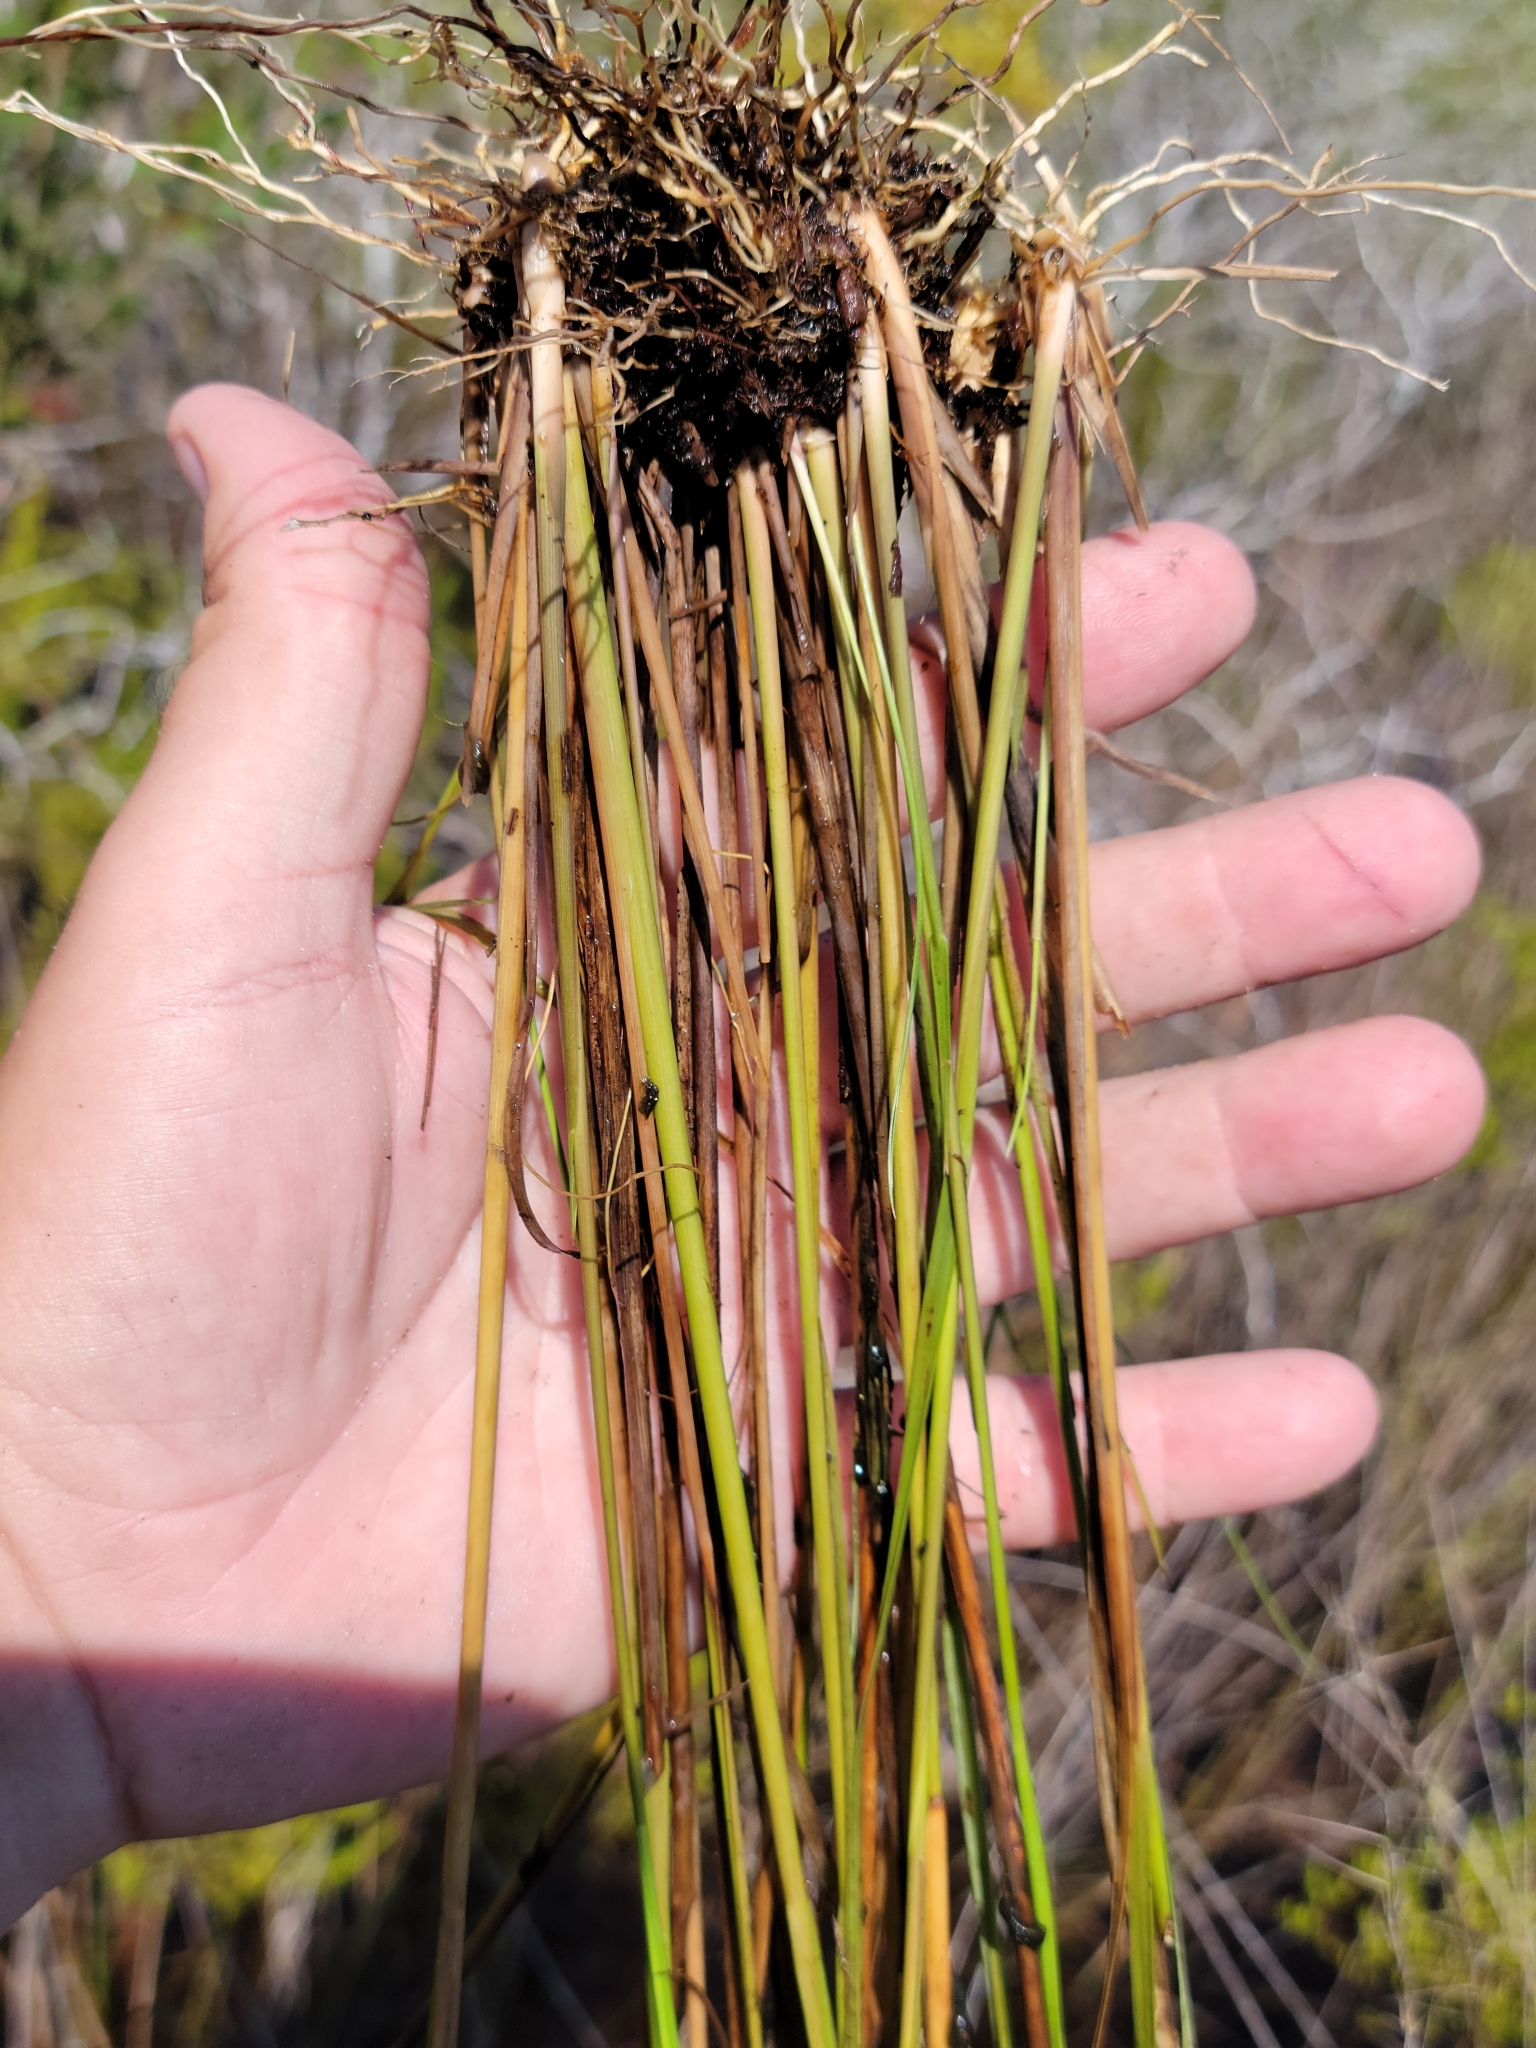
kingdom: Plantae
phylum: Tracheophyta
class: Liliopsida
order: Poales
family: Poaceae
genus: Aristida
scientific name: Aristida palustris
